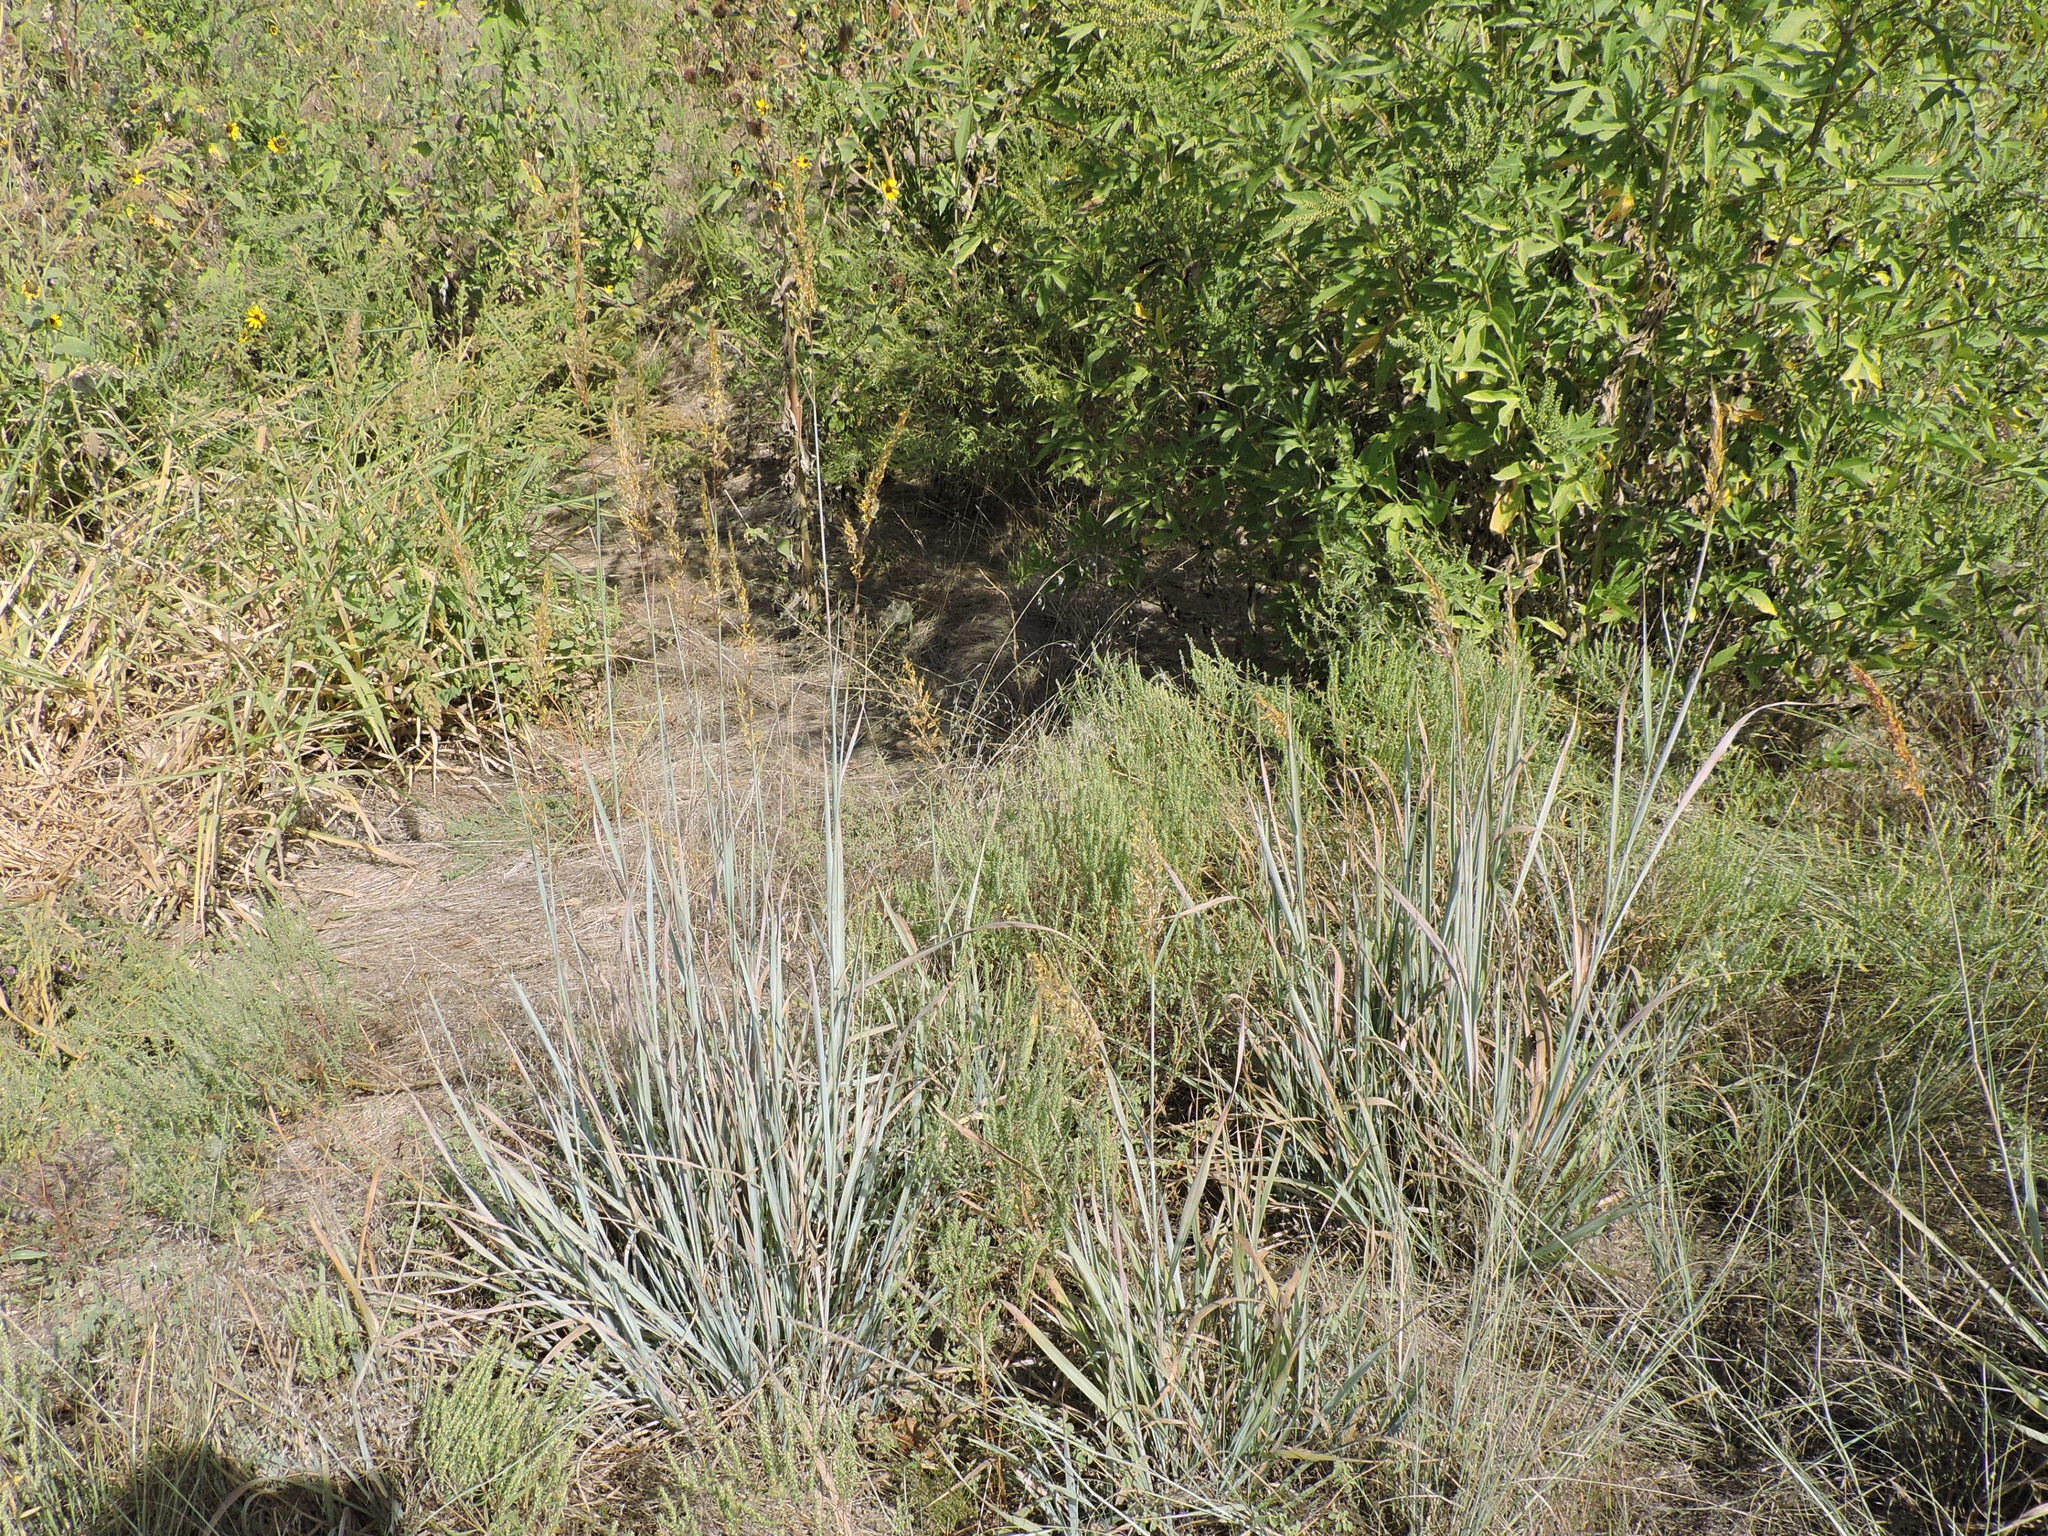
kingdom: Plantae
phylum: Tracheophyta
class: Liliopsida
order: Poales
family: Poaceae
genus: Sorghastrum
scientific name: Sorghastrum nutans
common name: Indian grass
